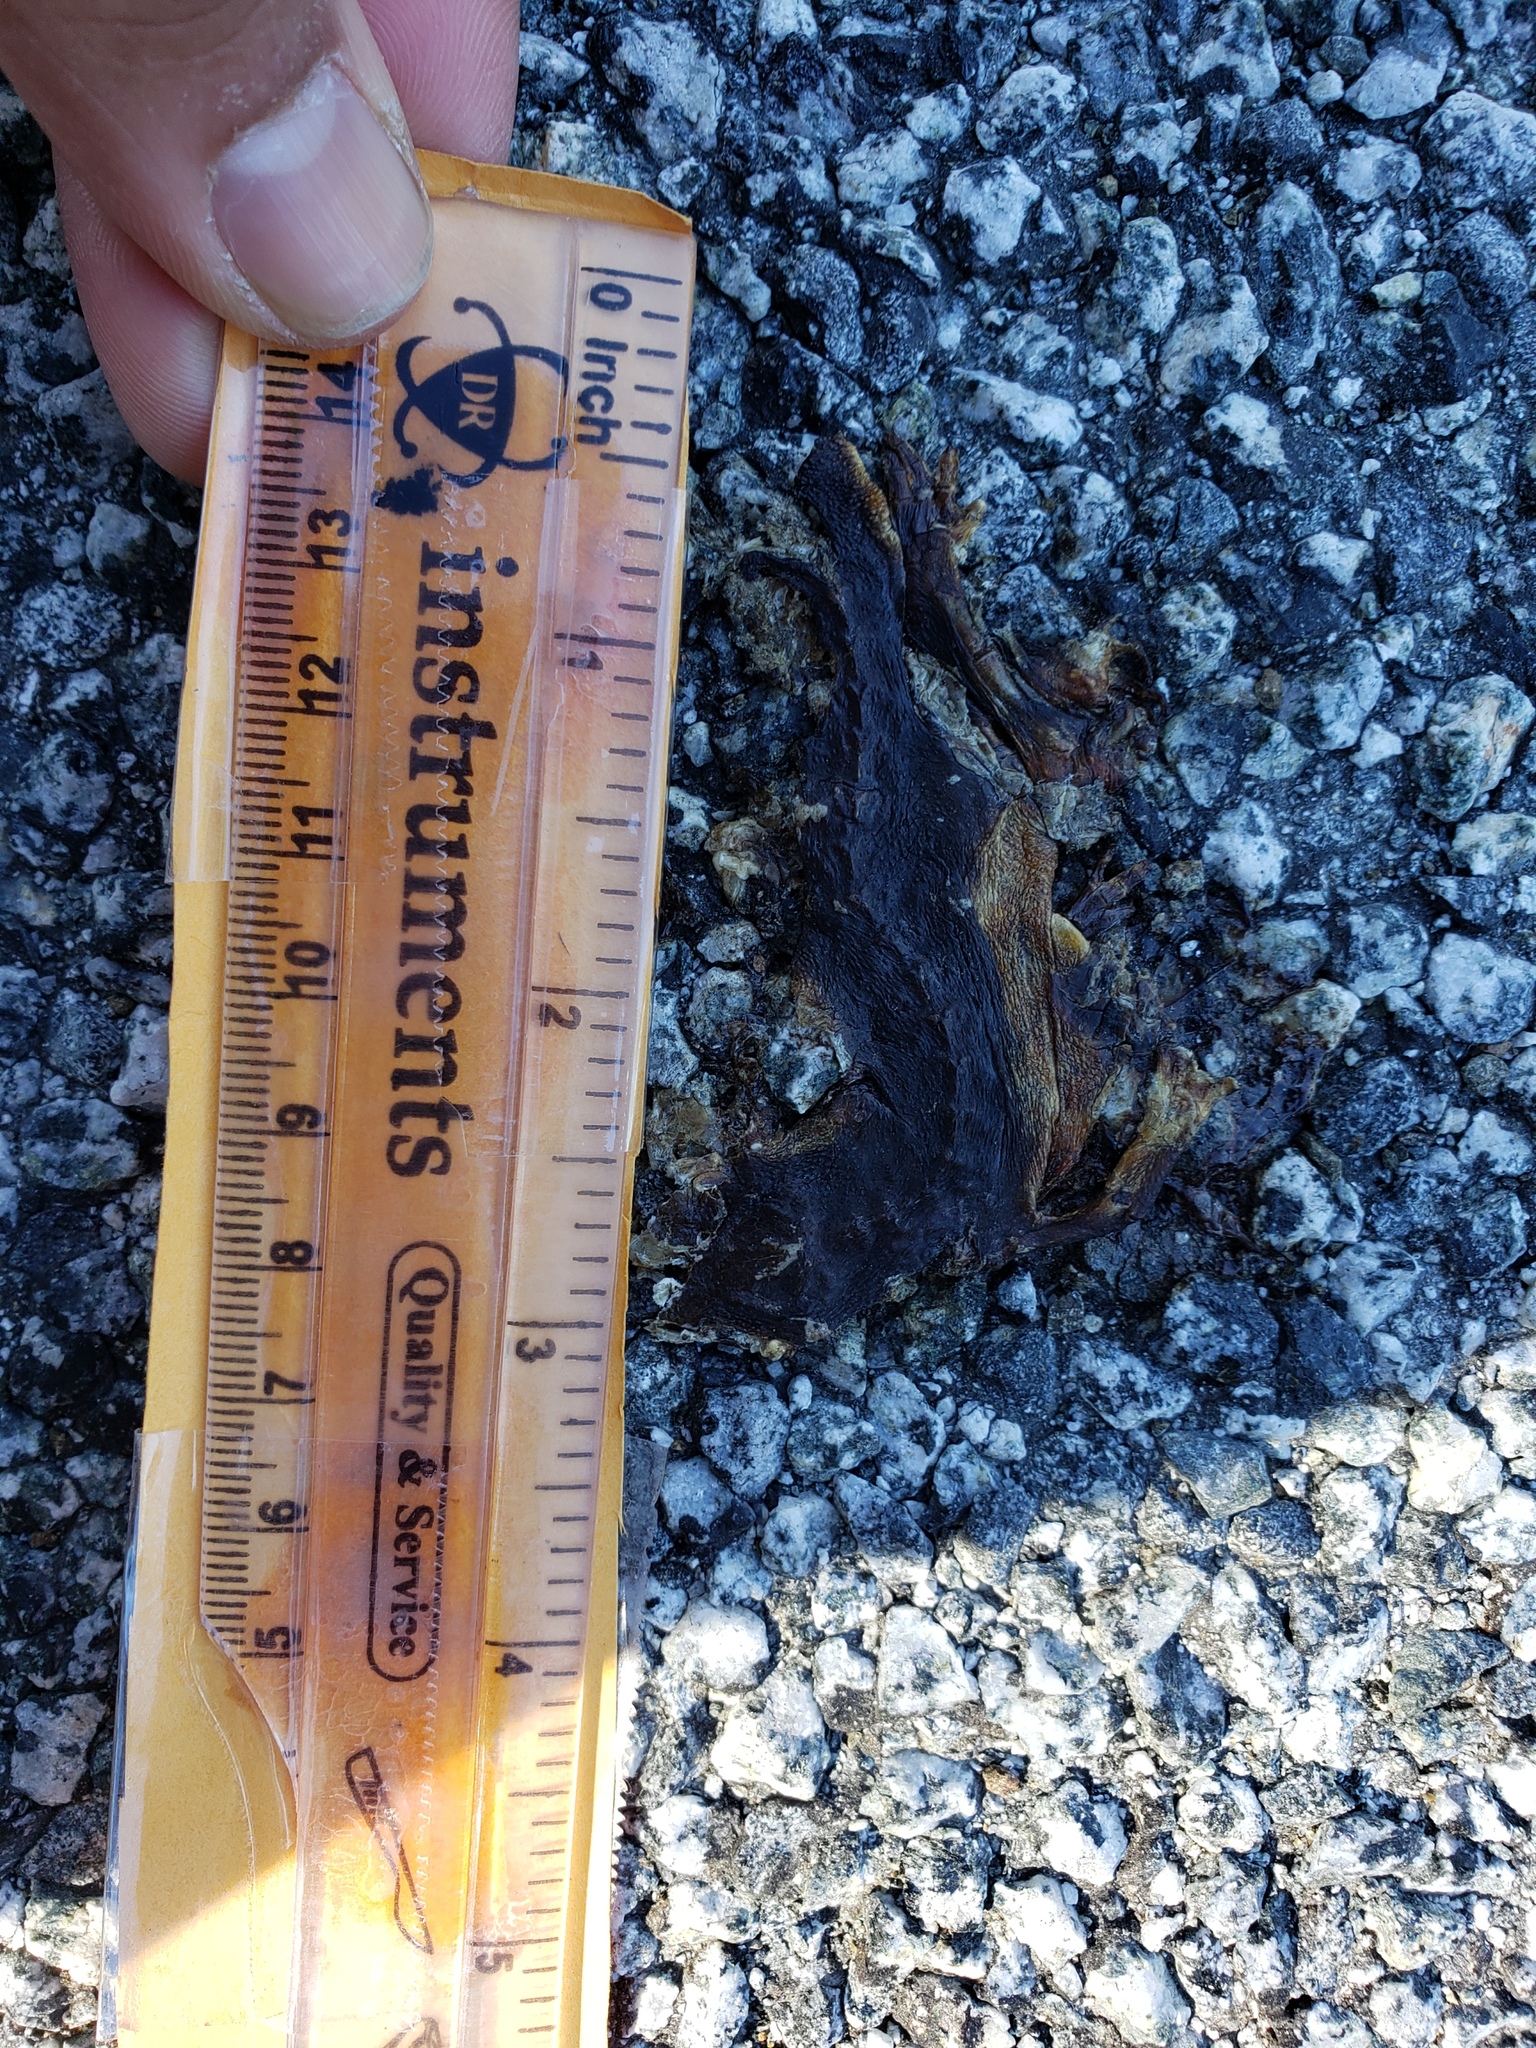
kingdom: Animalia
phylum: Chordata
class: Amphibia
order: Caudata
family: Salamandridae
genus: Taricha
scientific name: Taricha
